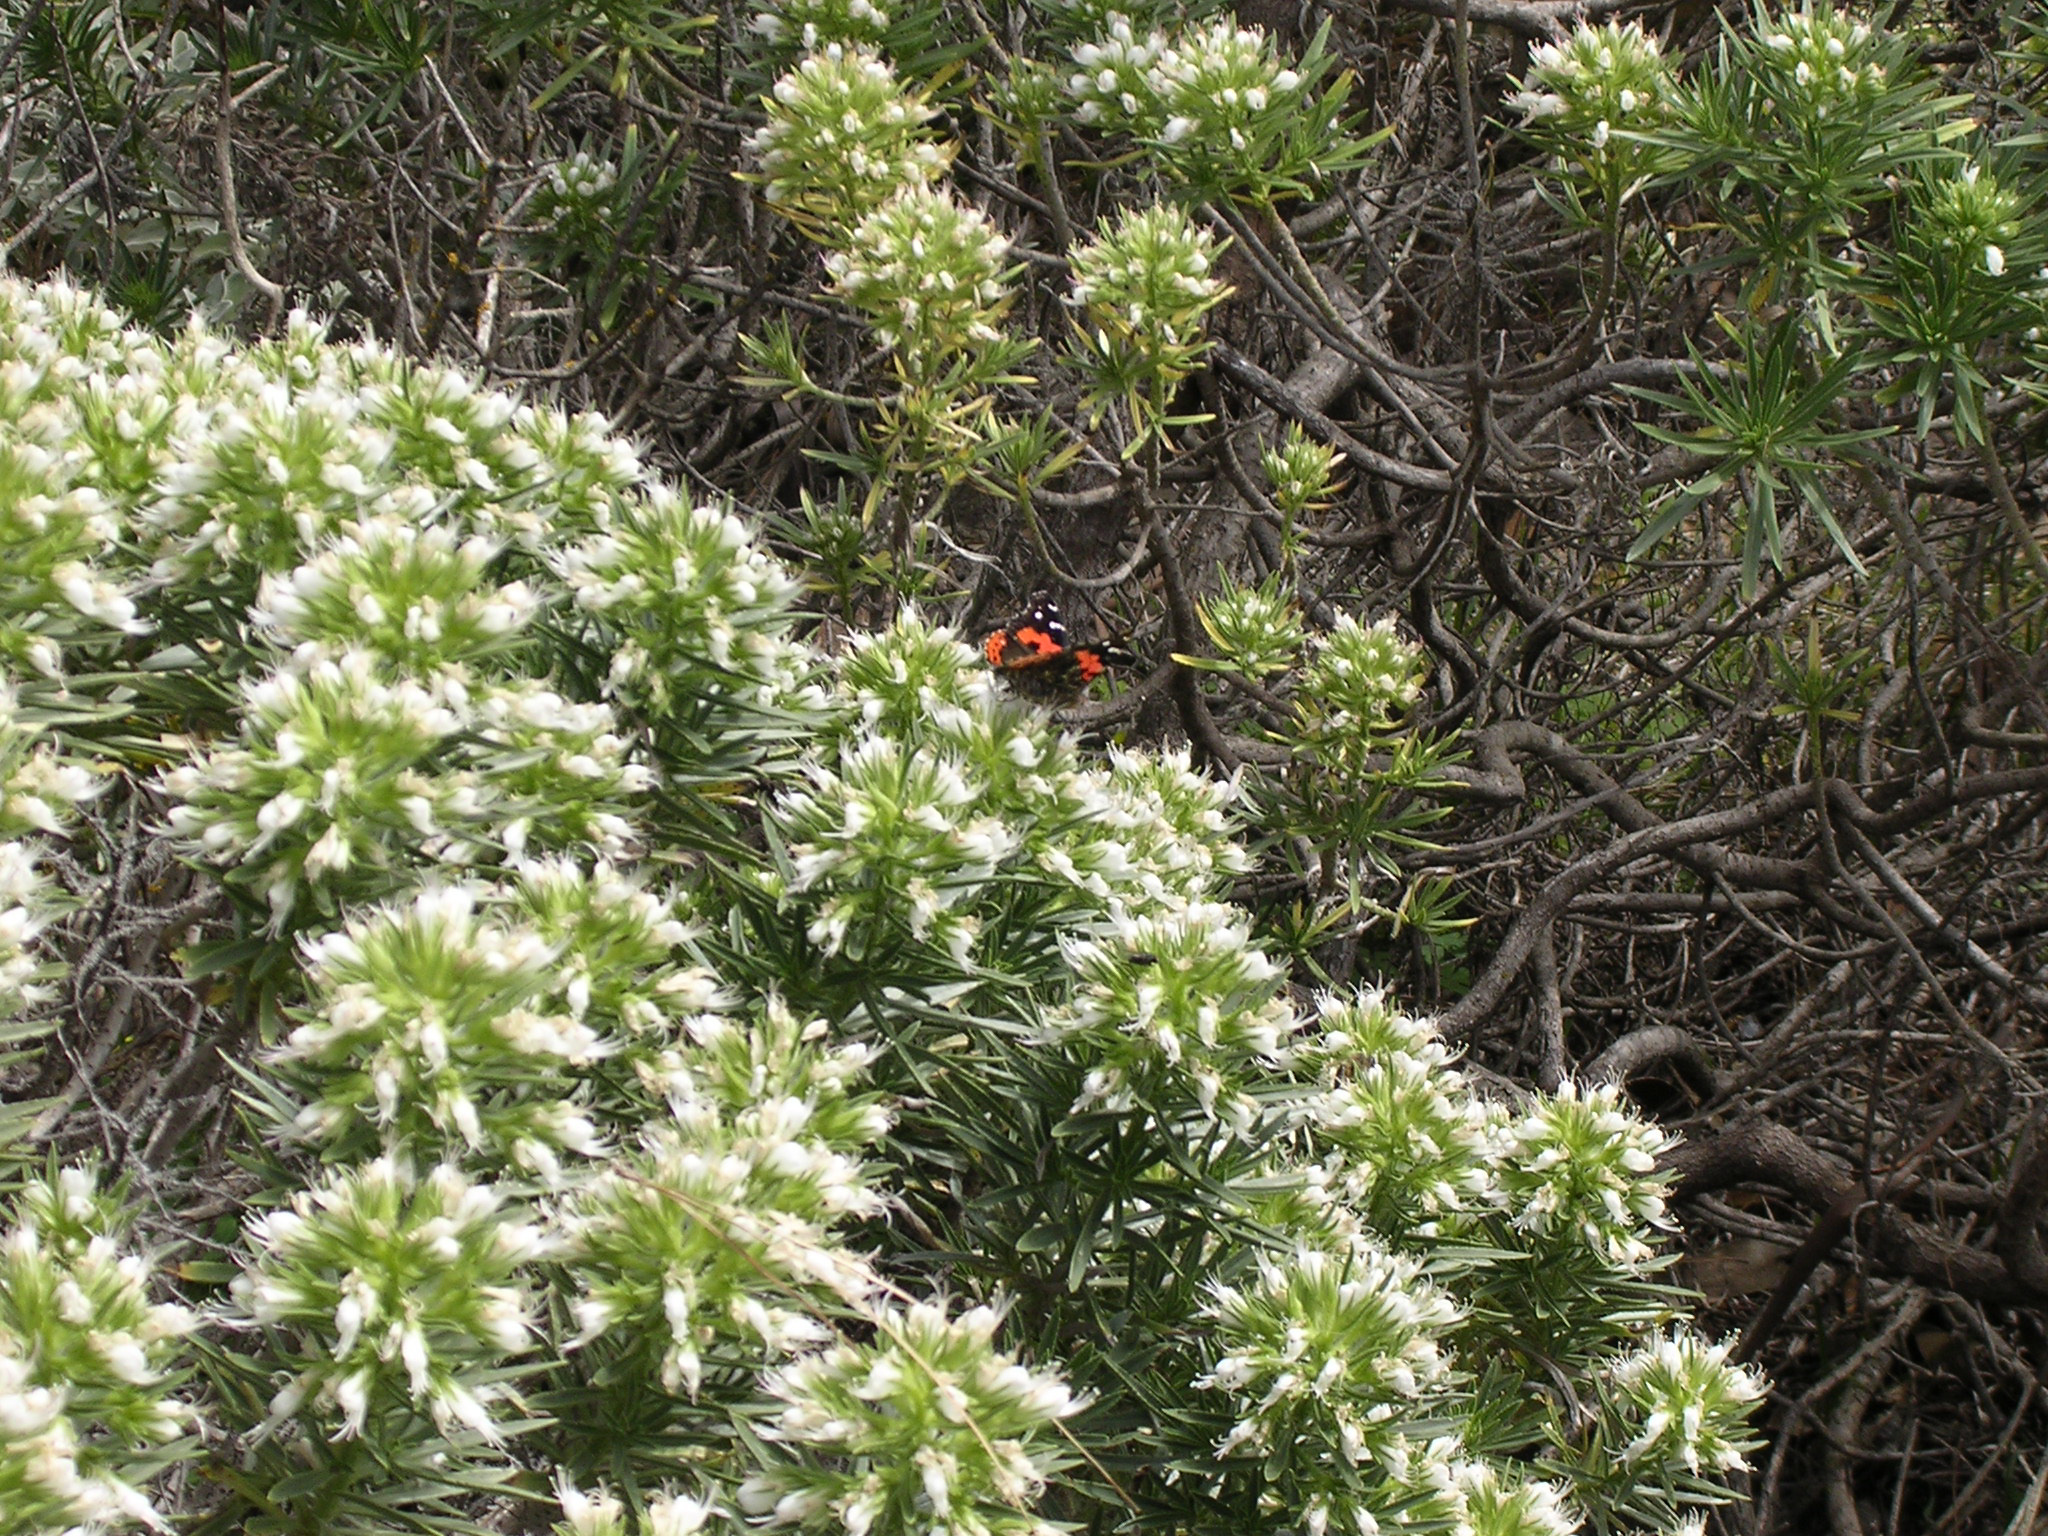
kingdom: Animalia
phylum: Arthropoda
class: Insecta
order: Lepidoptera
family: Nymphalidae
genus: Vanessa
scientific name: Vanessa vulcania
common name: Canary red admiral
